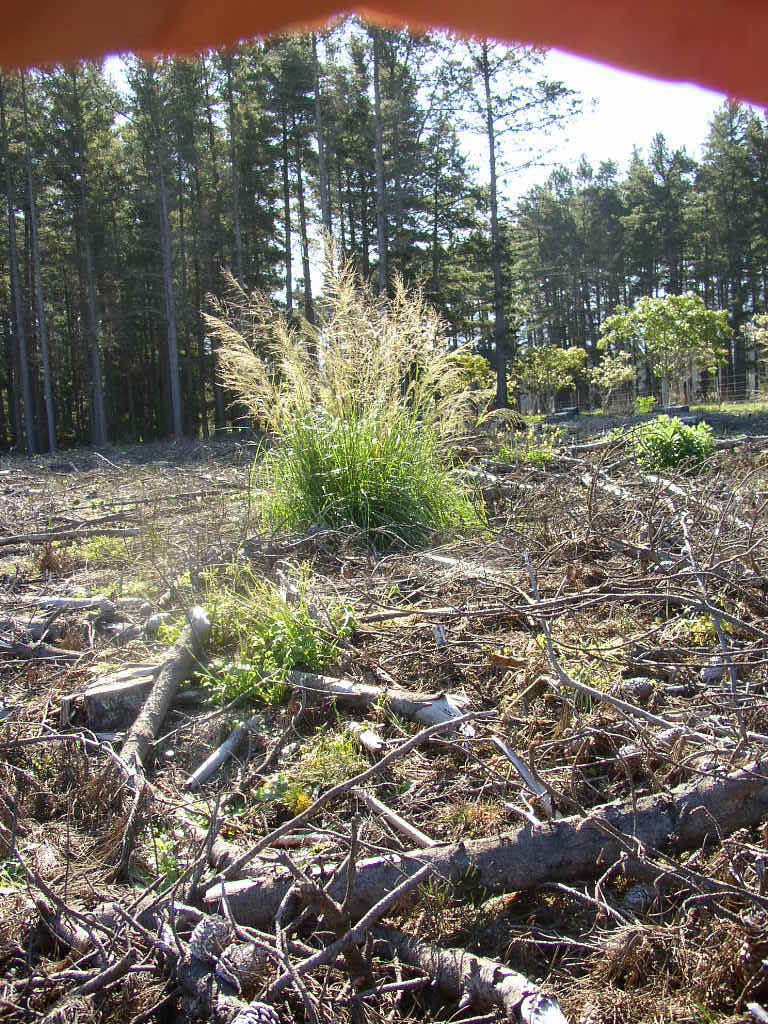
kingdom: Plantae
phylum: Tracheophyta
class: Liliopsida
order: Poales
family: Poaceae
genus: Megathyrsus
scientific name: Megathyrsus maximus
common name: Guineagrass
